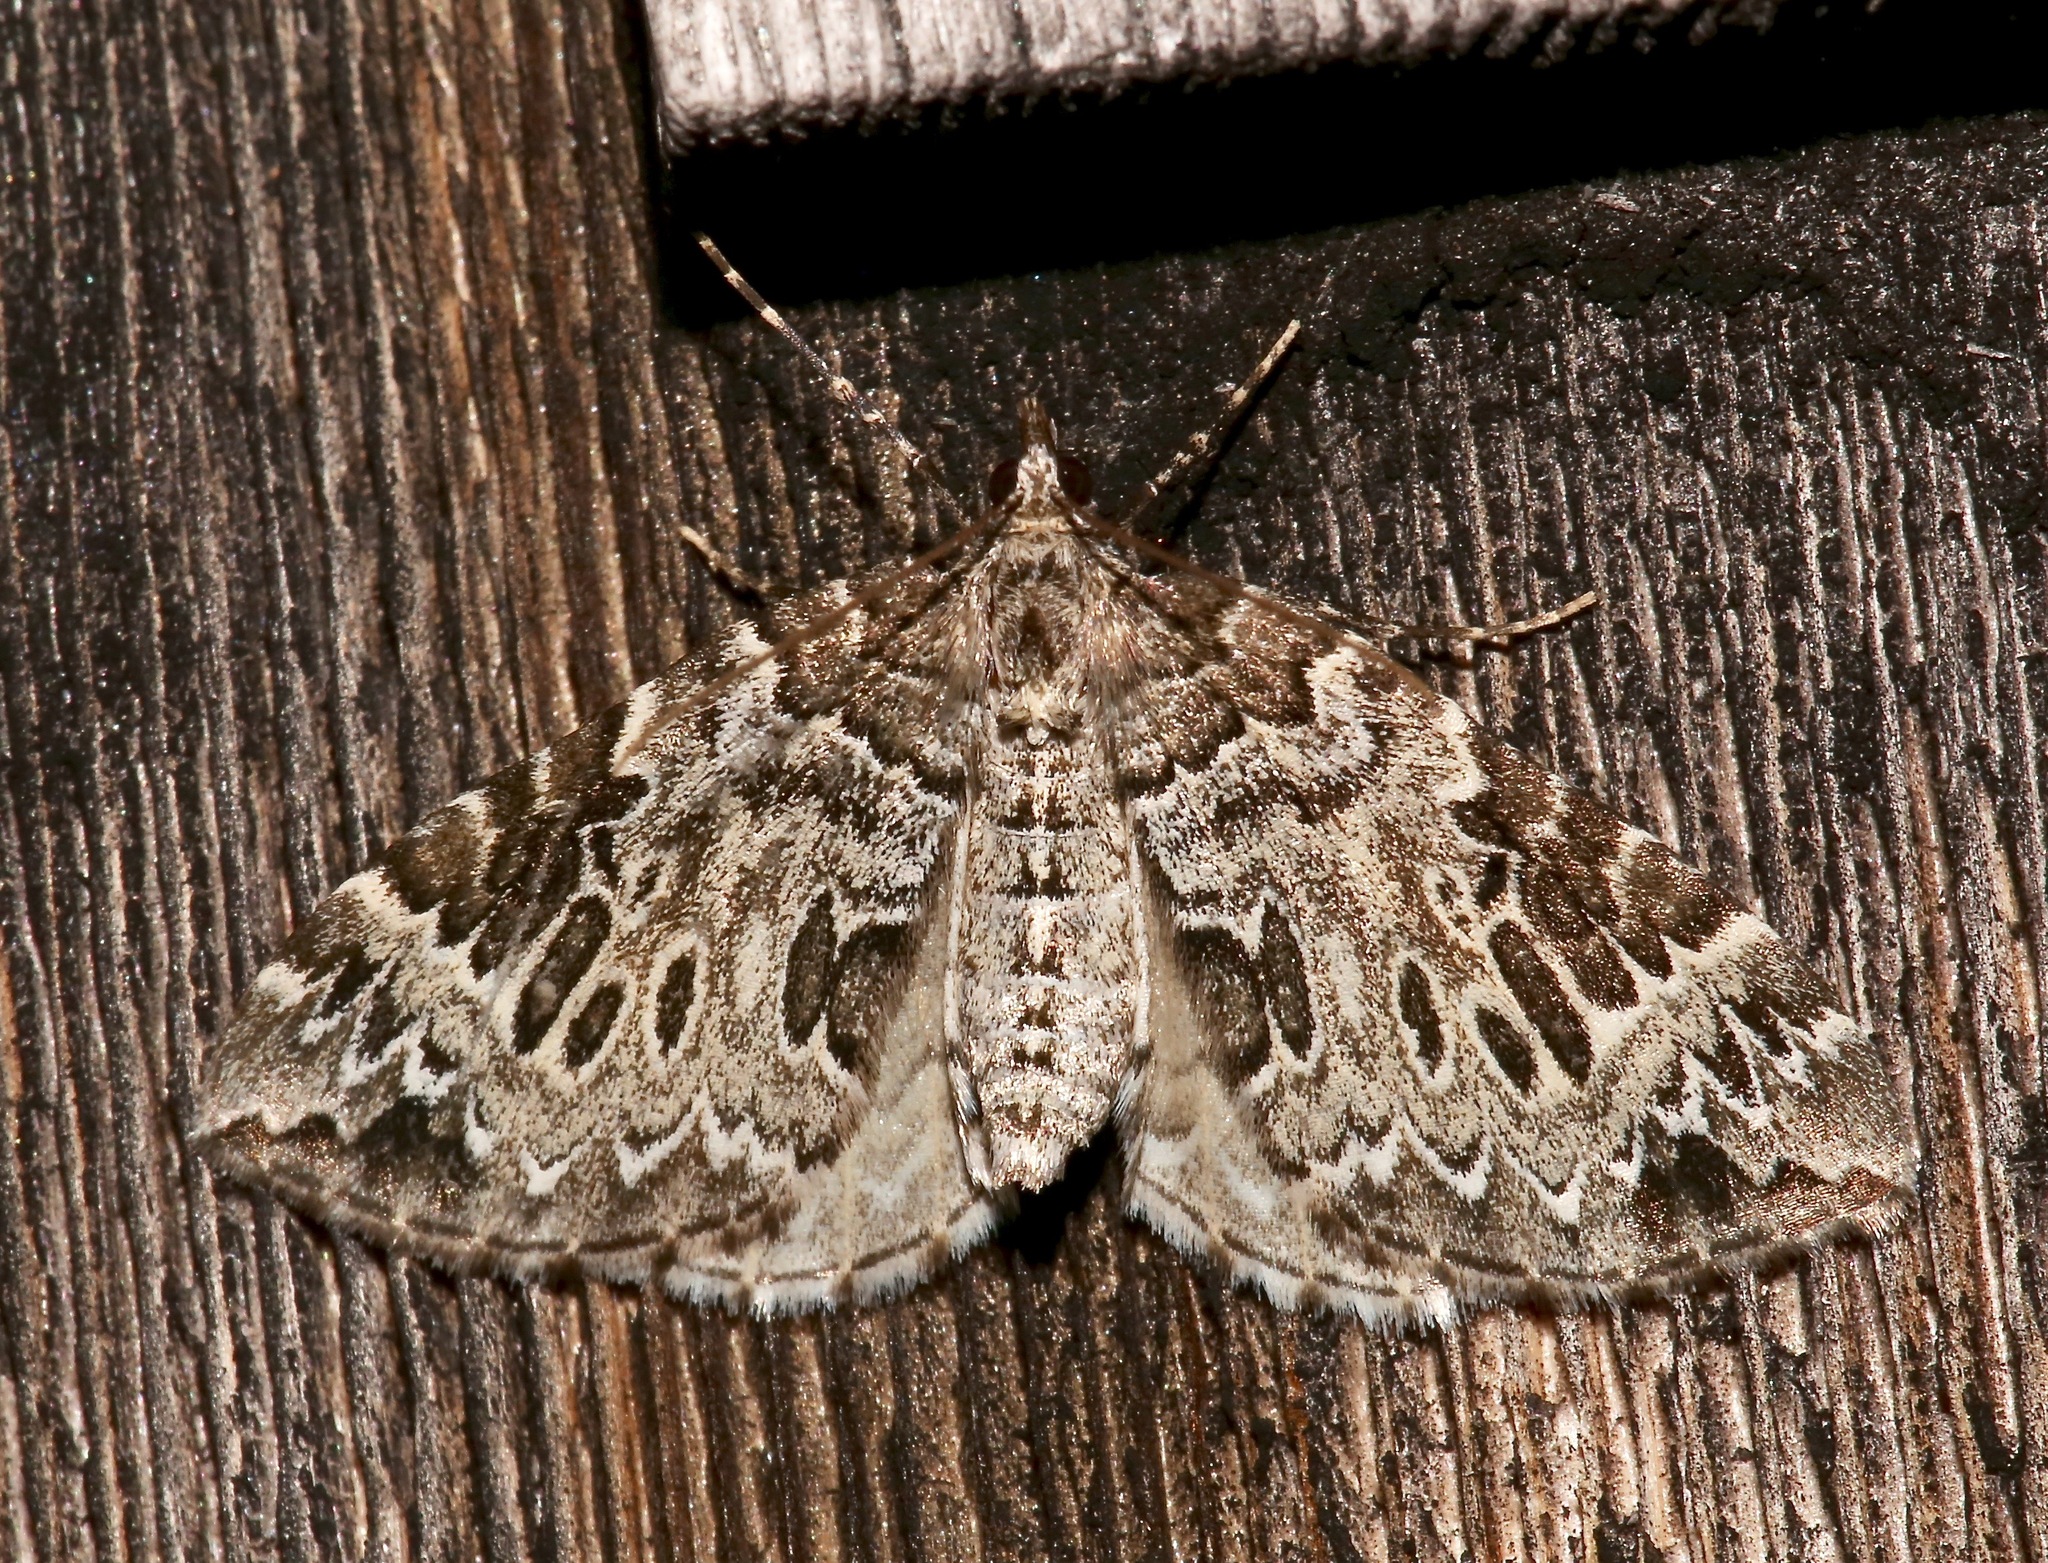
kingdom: Animalia
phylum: Arthropoda
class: Insecta
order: Lepidoptera
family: Geometridae
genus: Eulithis
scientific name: Eulithis explanata
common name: White eulithis
